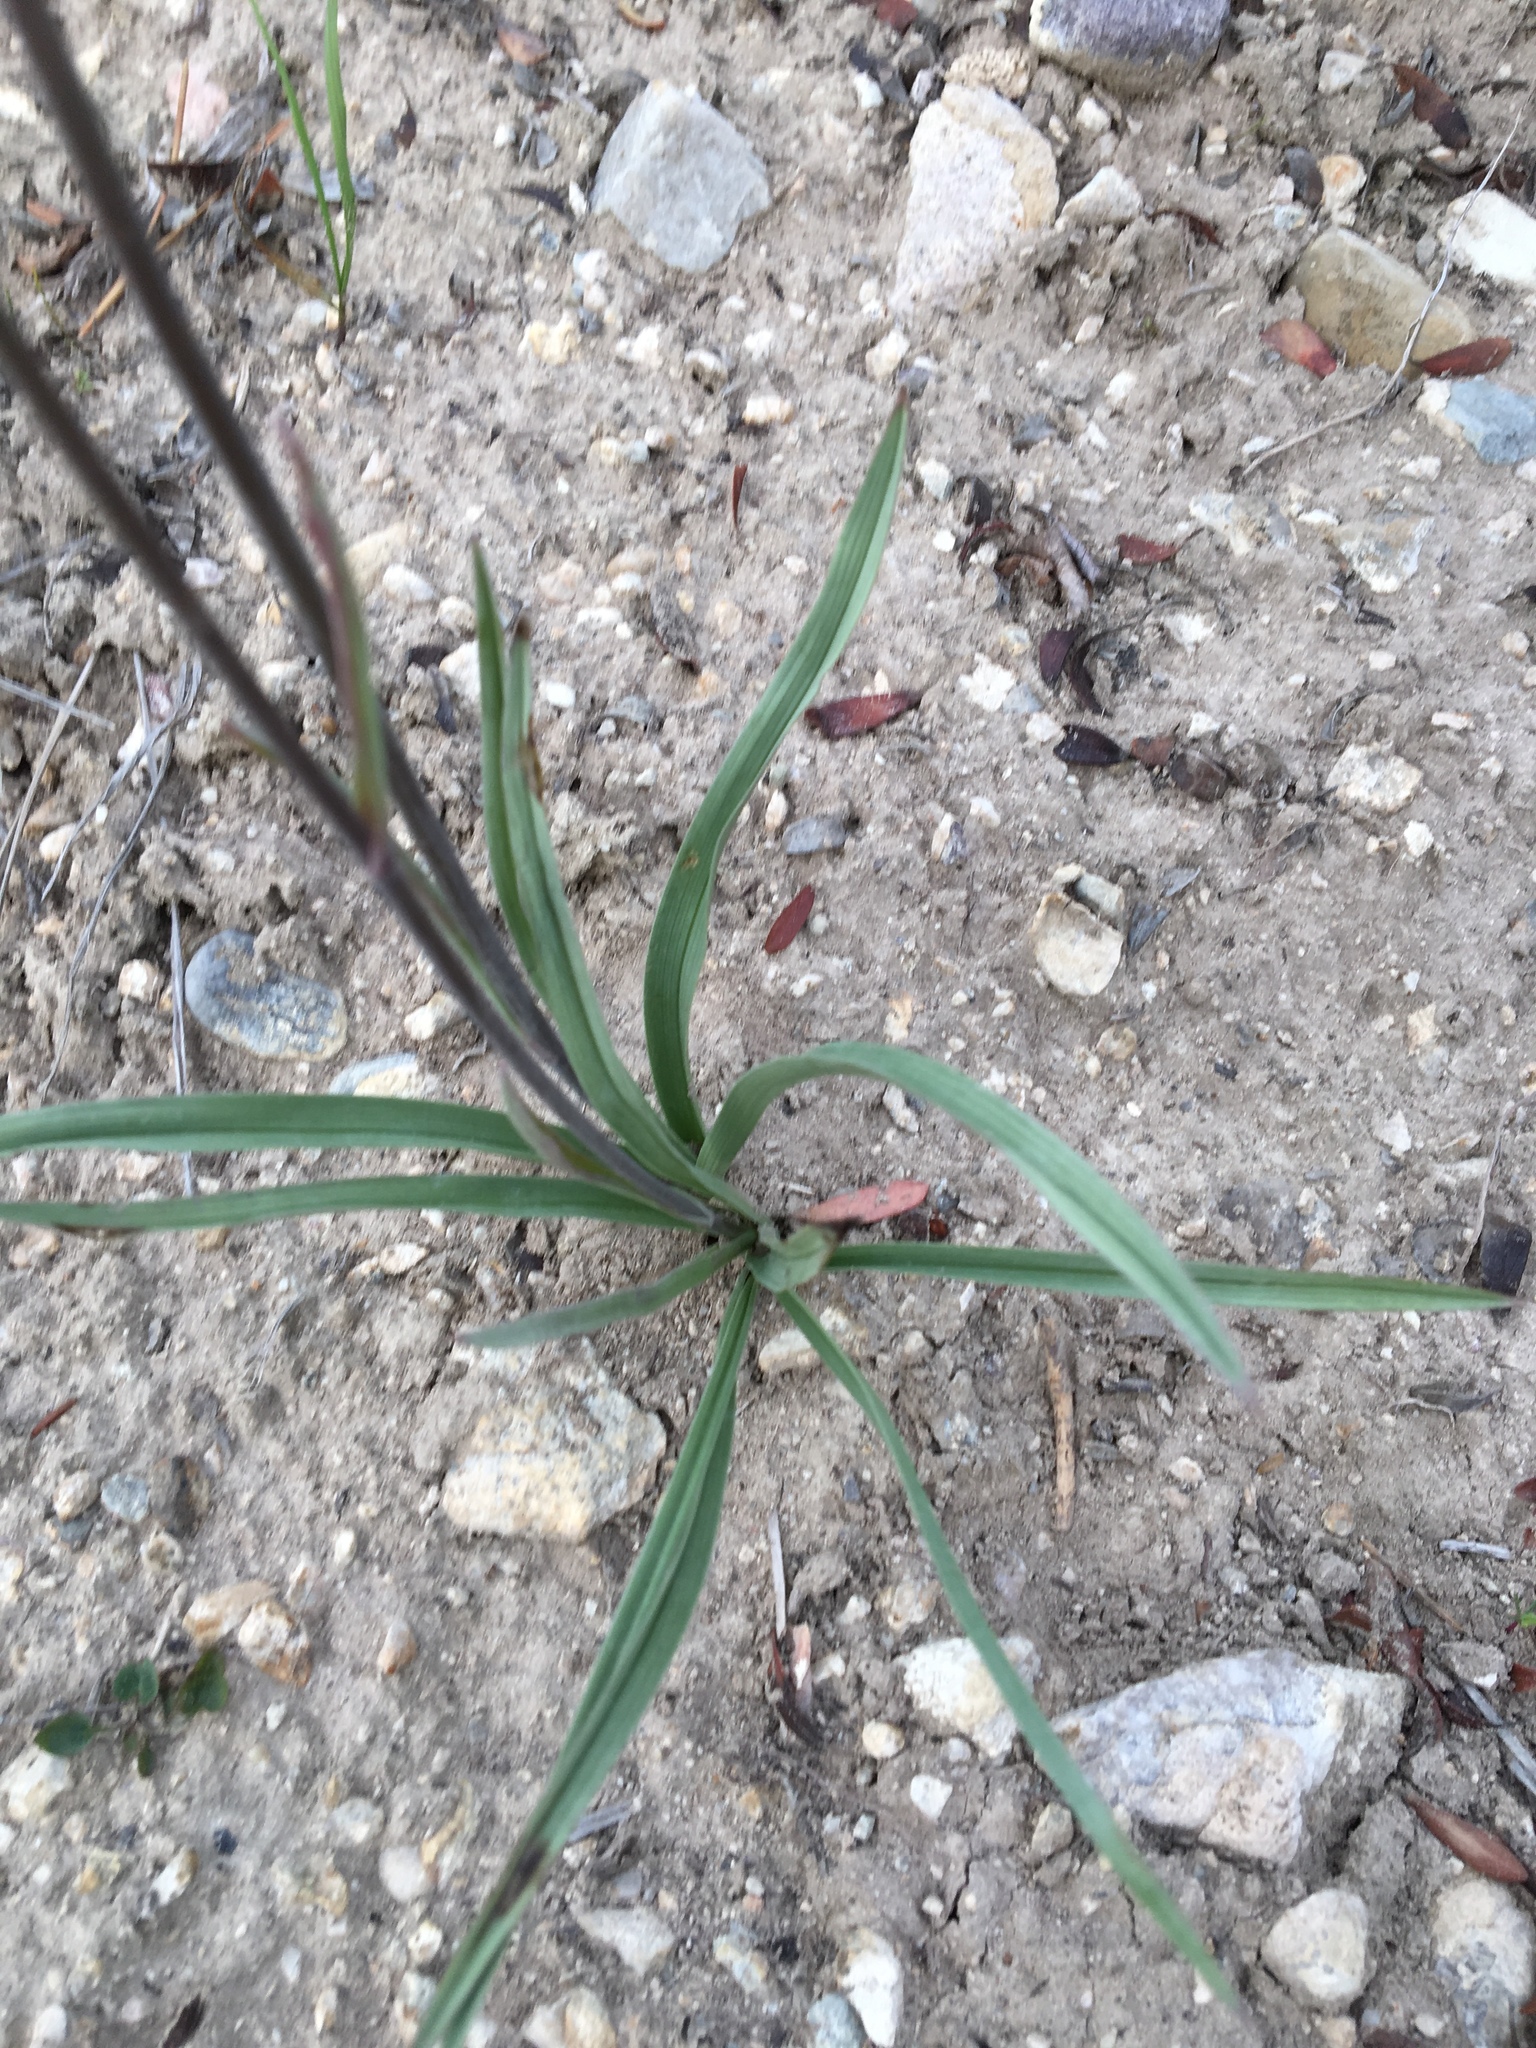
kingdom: Plantae
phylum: Tracheophyta
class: Liliopsida
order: Liliales
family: Melanthiaceae
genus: Anticlea
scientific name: Anticlea elegans
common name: Mountain death camas
